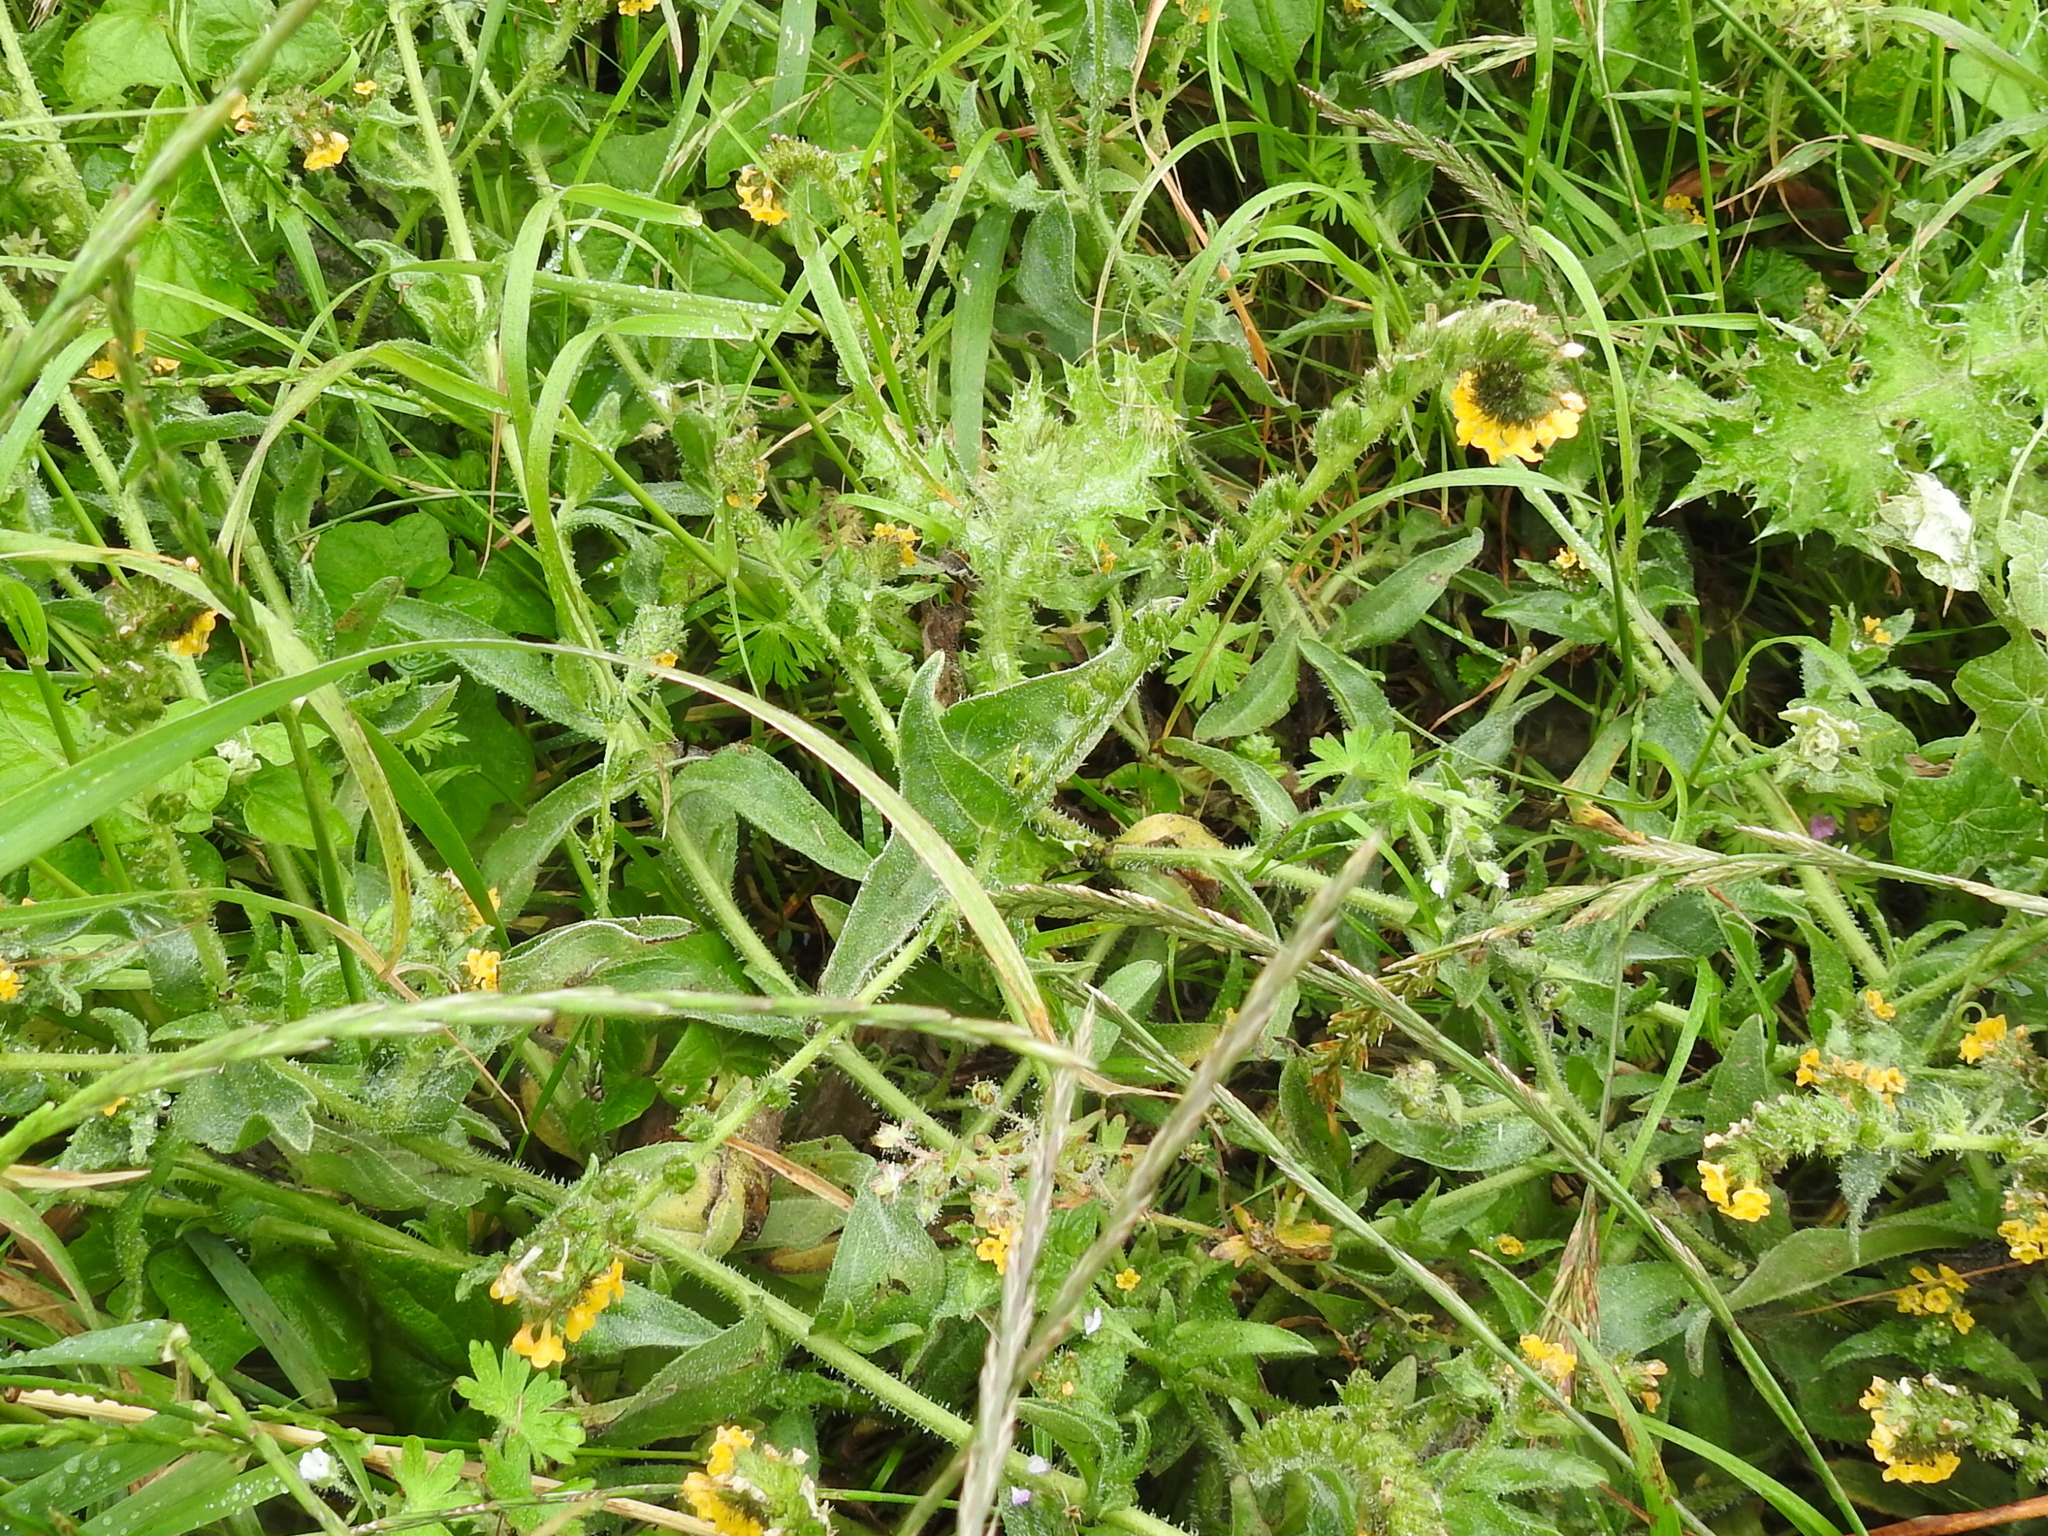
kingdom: Plantae
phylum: Tracheophyta
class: Magnoliopsida
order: Boraginales
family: Boraginaceae
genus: Amsinckia
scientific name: Amsinckia spectabilis
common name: Seaside fiddleneck
